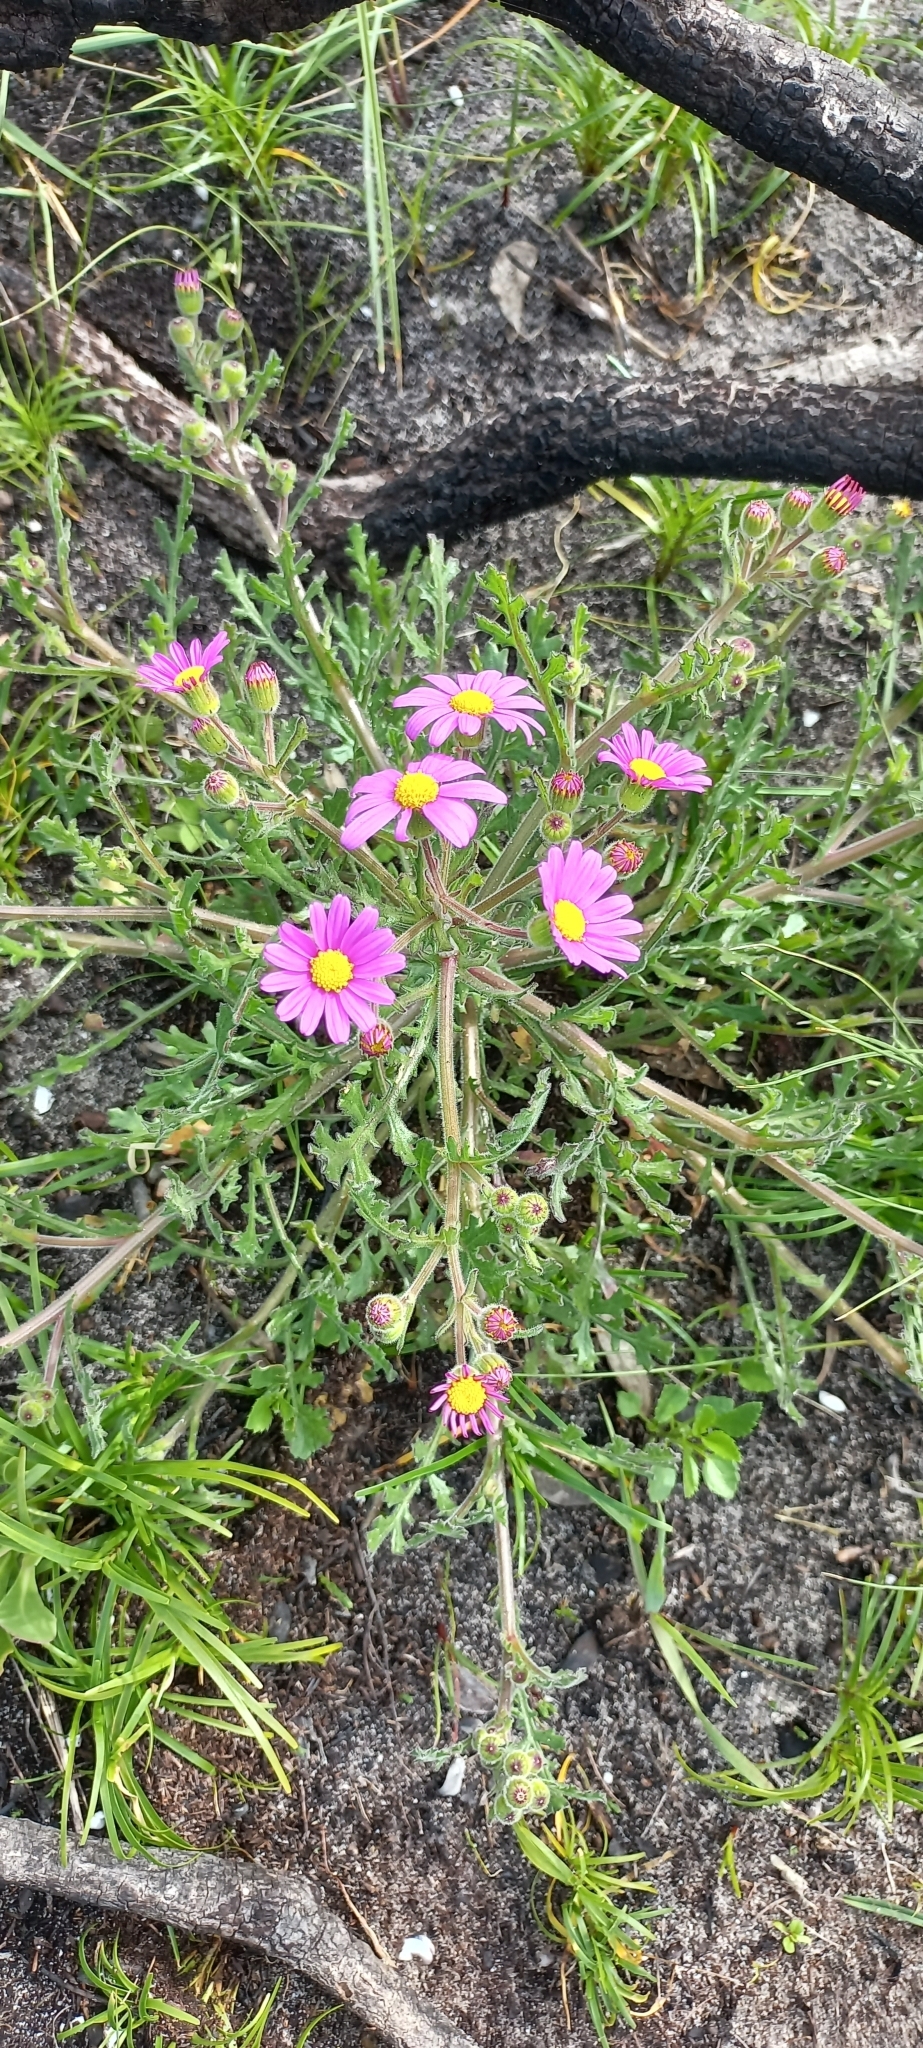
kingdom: Plantae
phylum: Tracheophyta
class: Magnoliopsida
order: Asterales
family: Asteraceae
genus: Senecio
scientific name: Senecio arenarius
